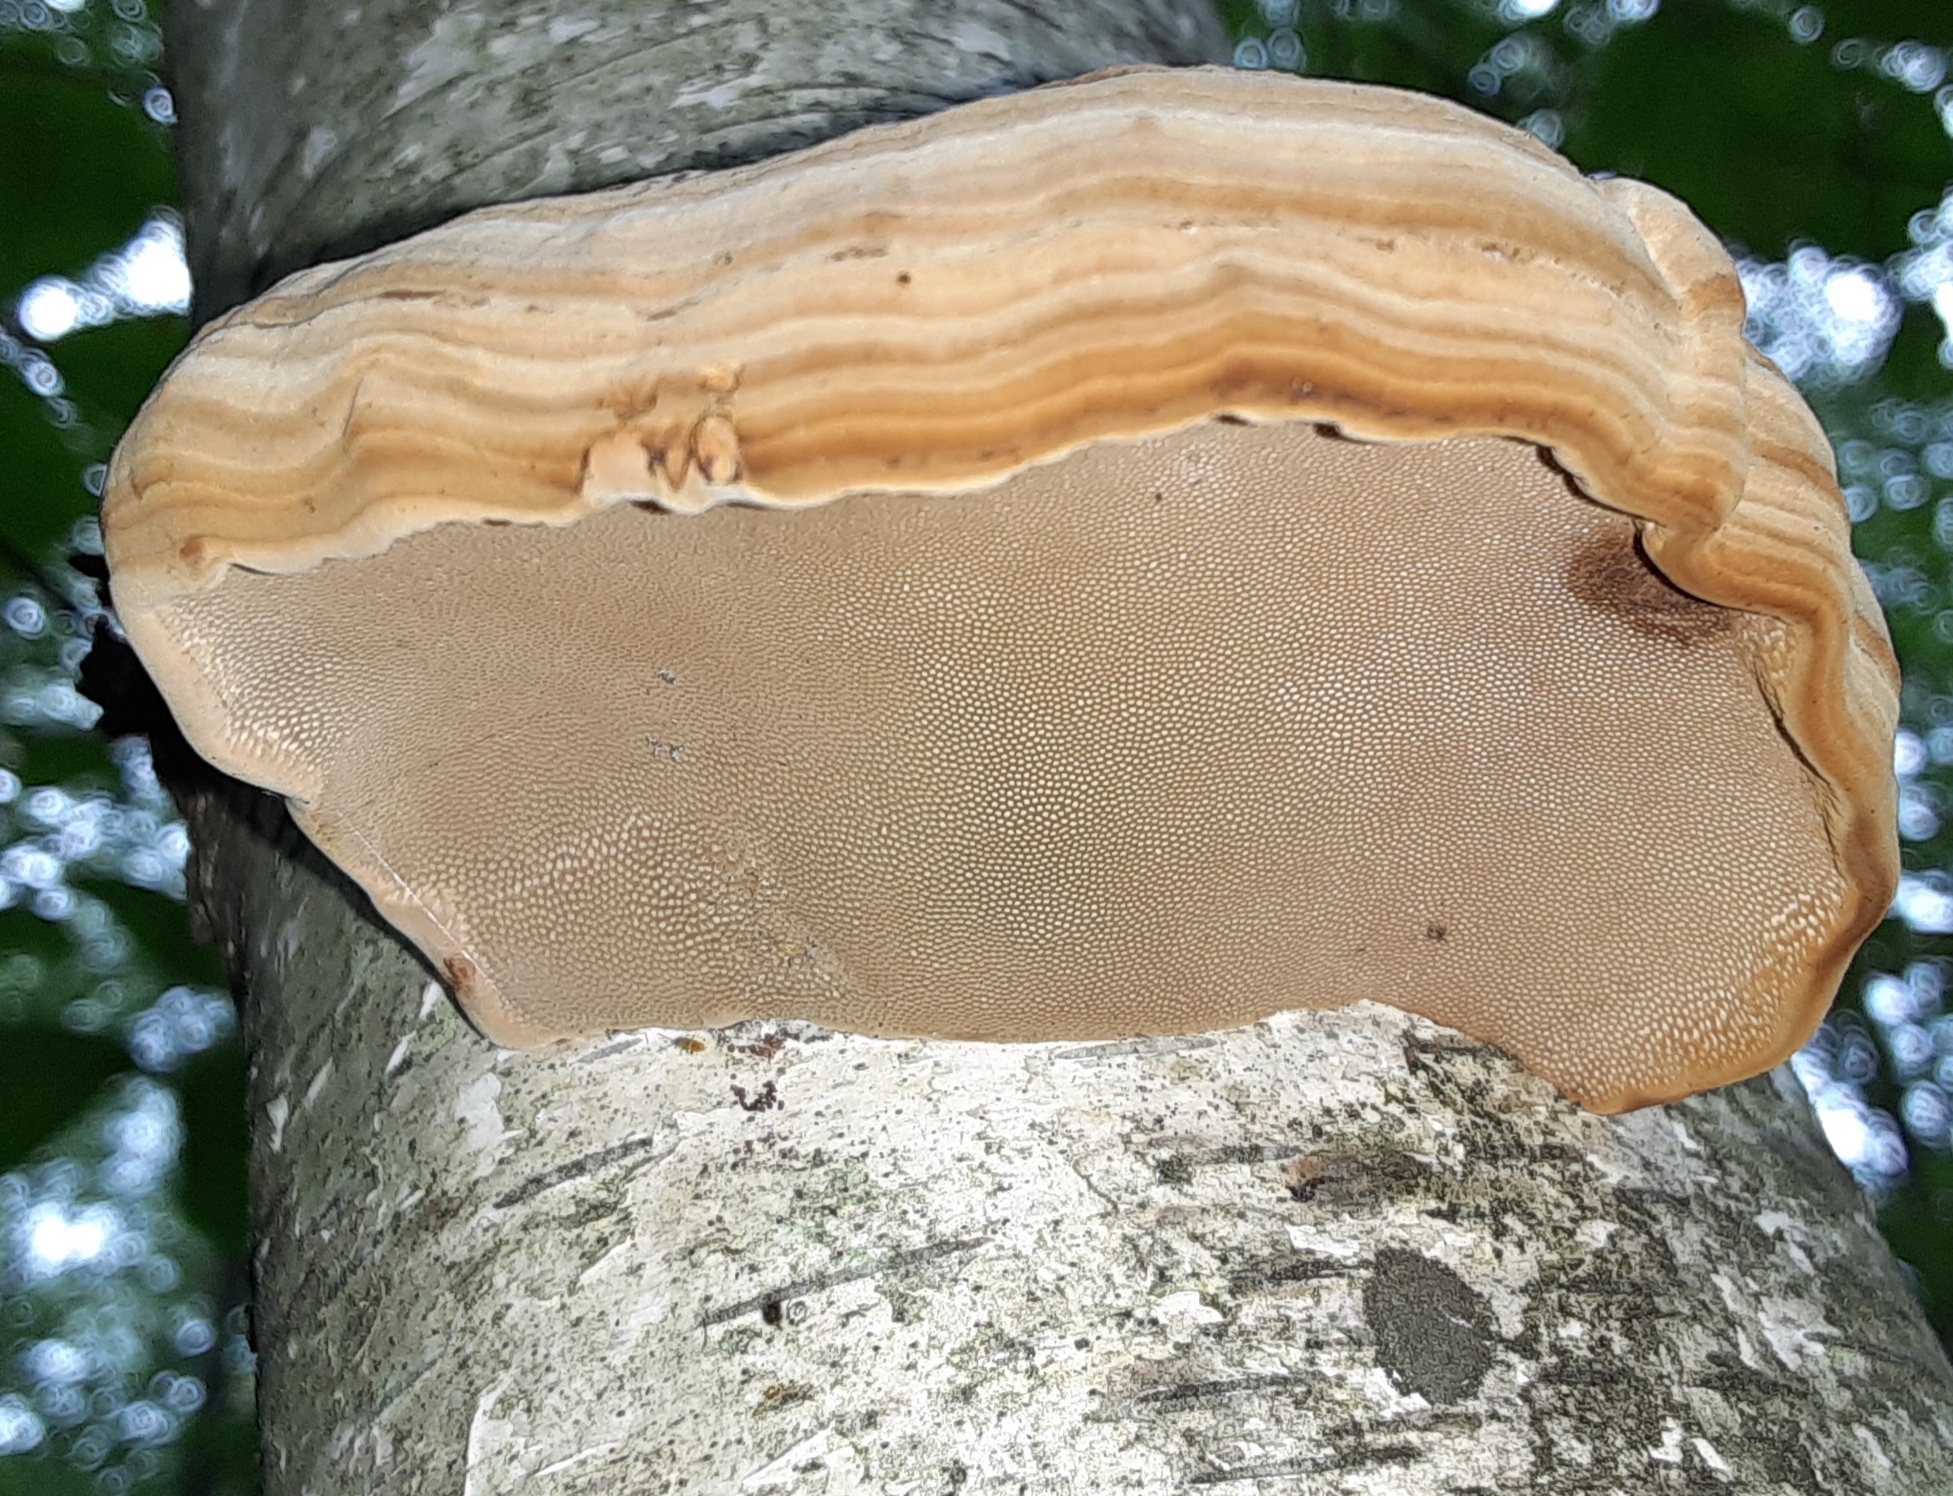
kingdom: Fungi
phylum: Basidiomycota
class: Agaricomycetes
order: Polyporales
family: Polyporaceae
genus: Fomes
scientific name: Fomes fomentarius
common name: Hoof fungus
